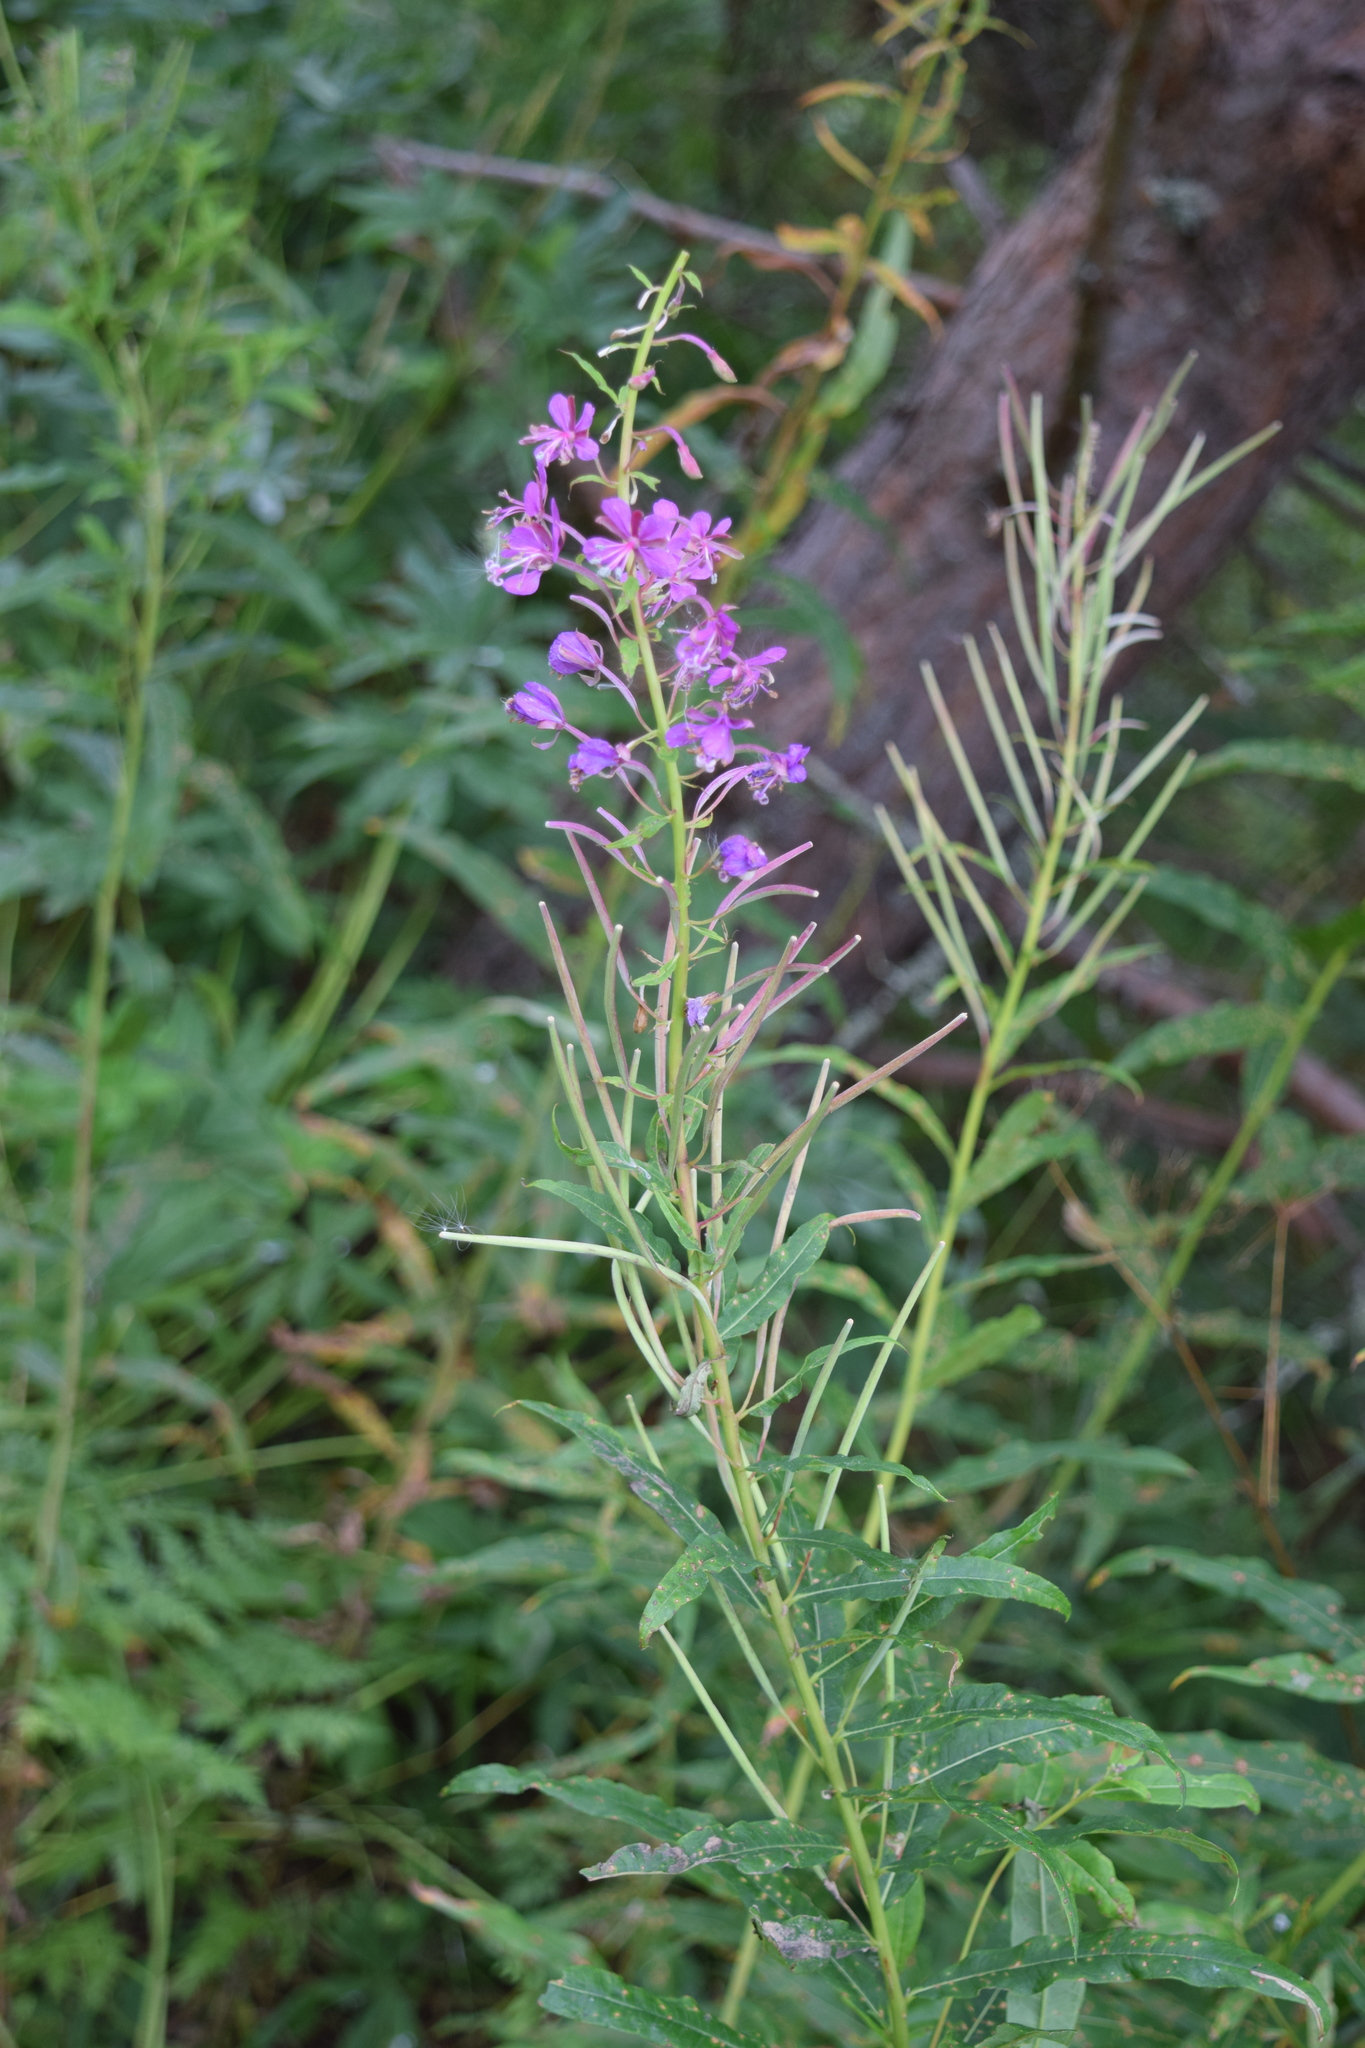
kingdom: Plantae
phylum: Tracheophyta
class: Magnoliopsida
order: Myrtales
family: Onagraceae
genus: Chamaenerion
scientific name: Chamaenerion angustifolium
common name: Fireweed
